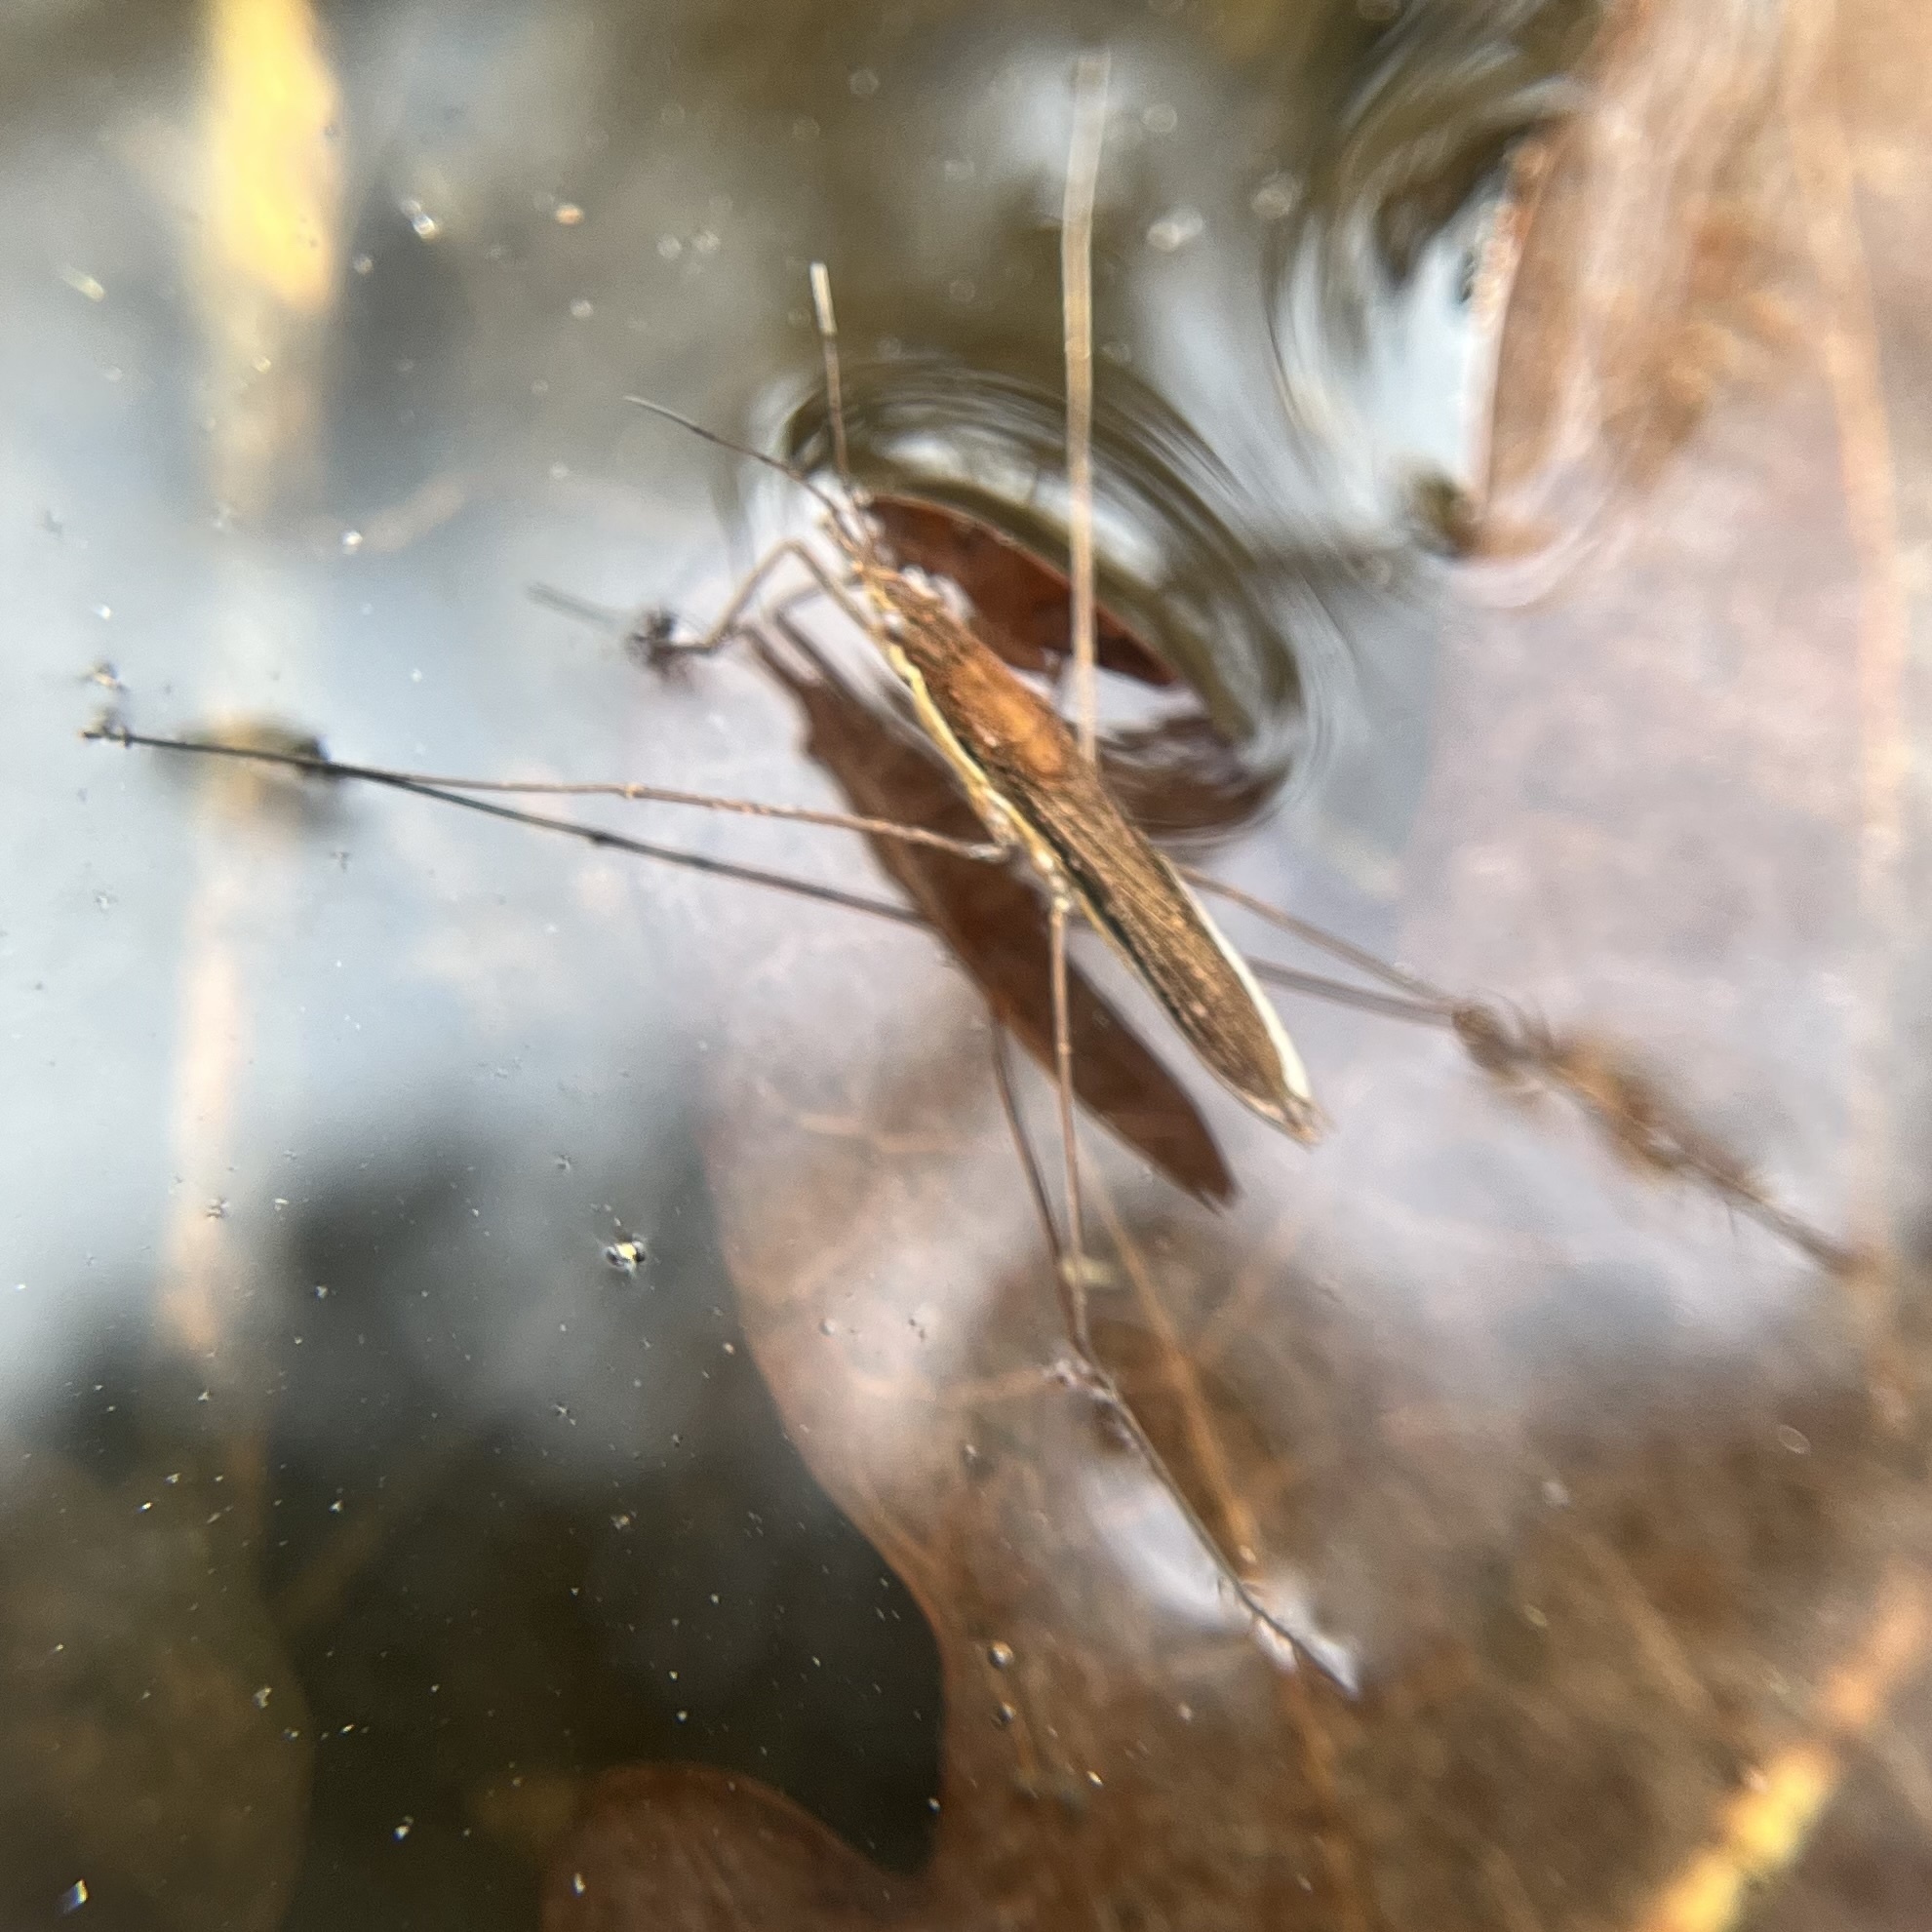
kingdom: Animalia
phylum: Arthropoda
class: Insecta
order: Hemiptera
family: Gerridae
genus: Limnoporus
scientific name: Limnoporus rufoscutellatus
